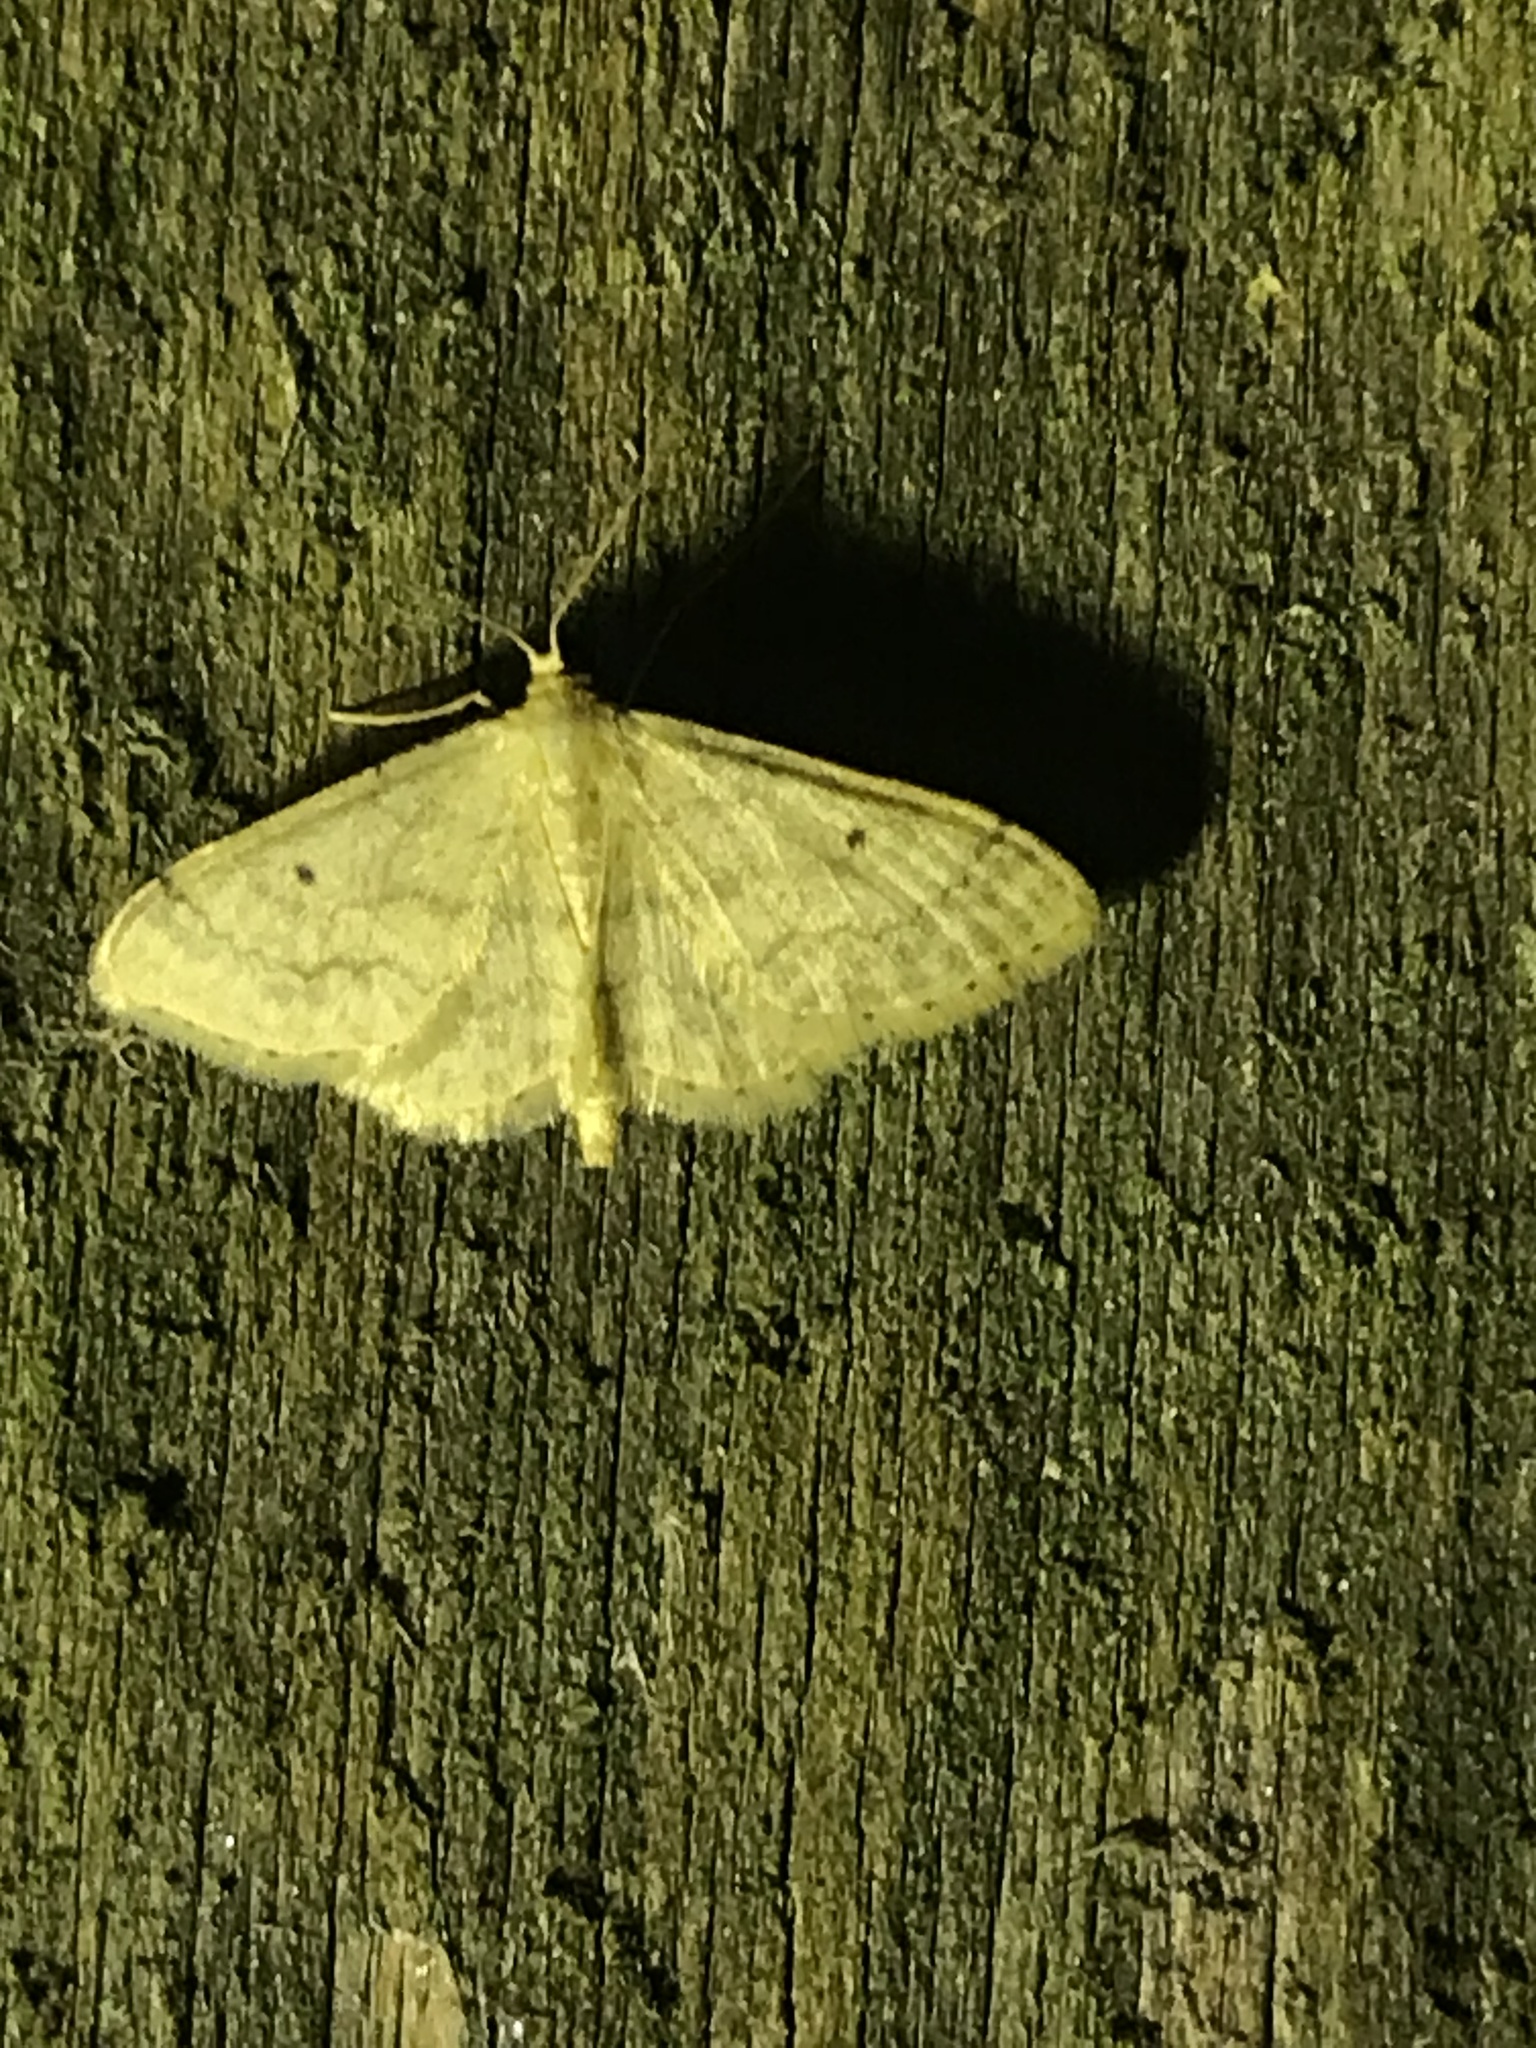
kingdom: Animalia
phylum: Arthropoda
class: Insecta
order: Lepidoptera
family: Geometridae
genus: Idaea
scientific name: Idaea biselata
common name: Small fan-footed wave
